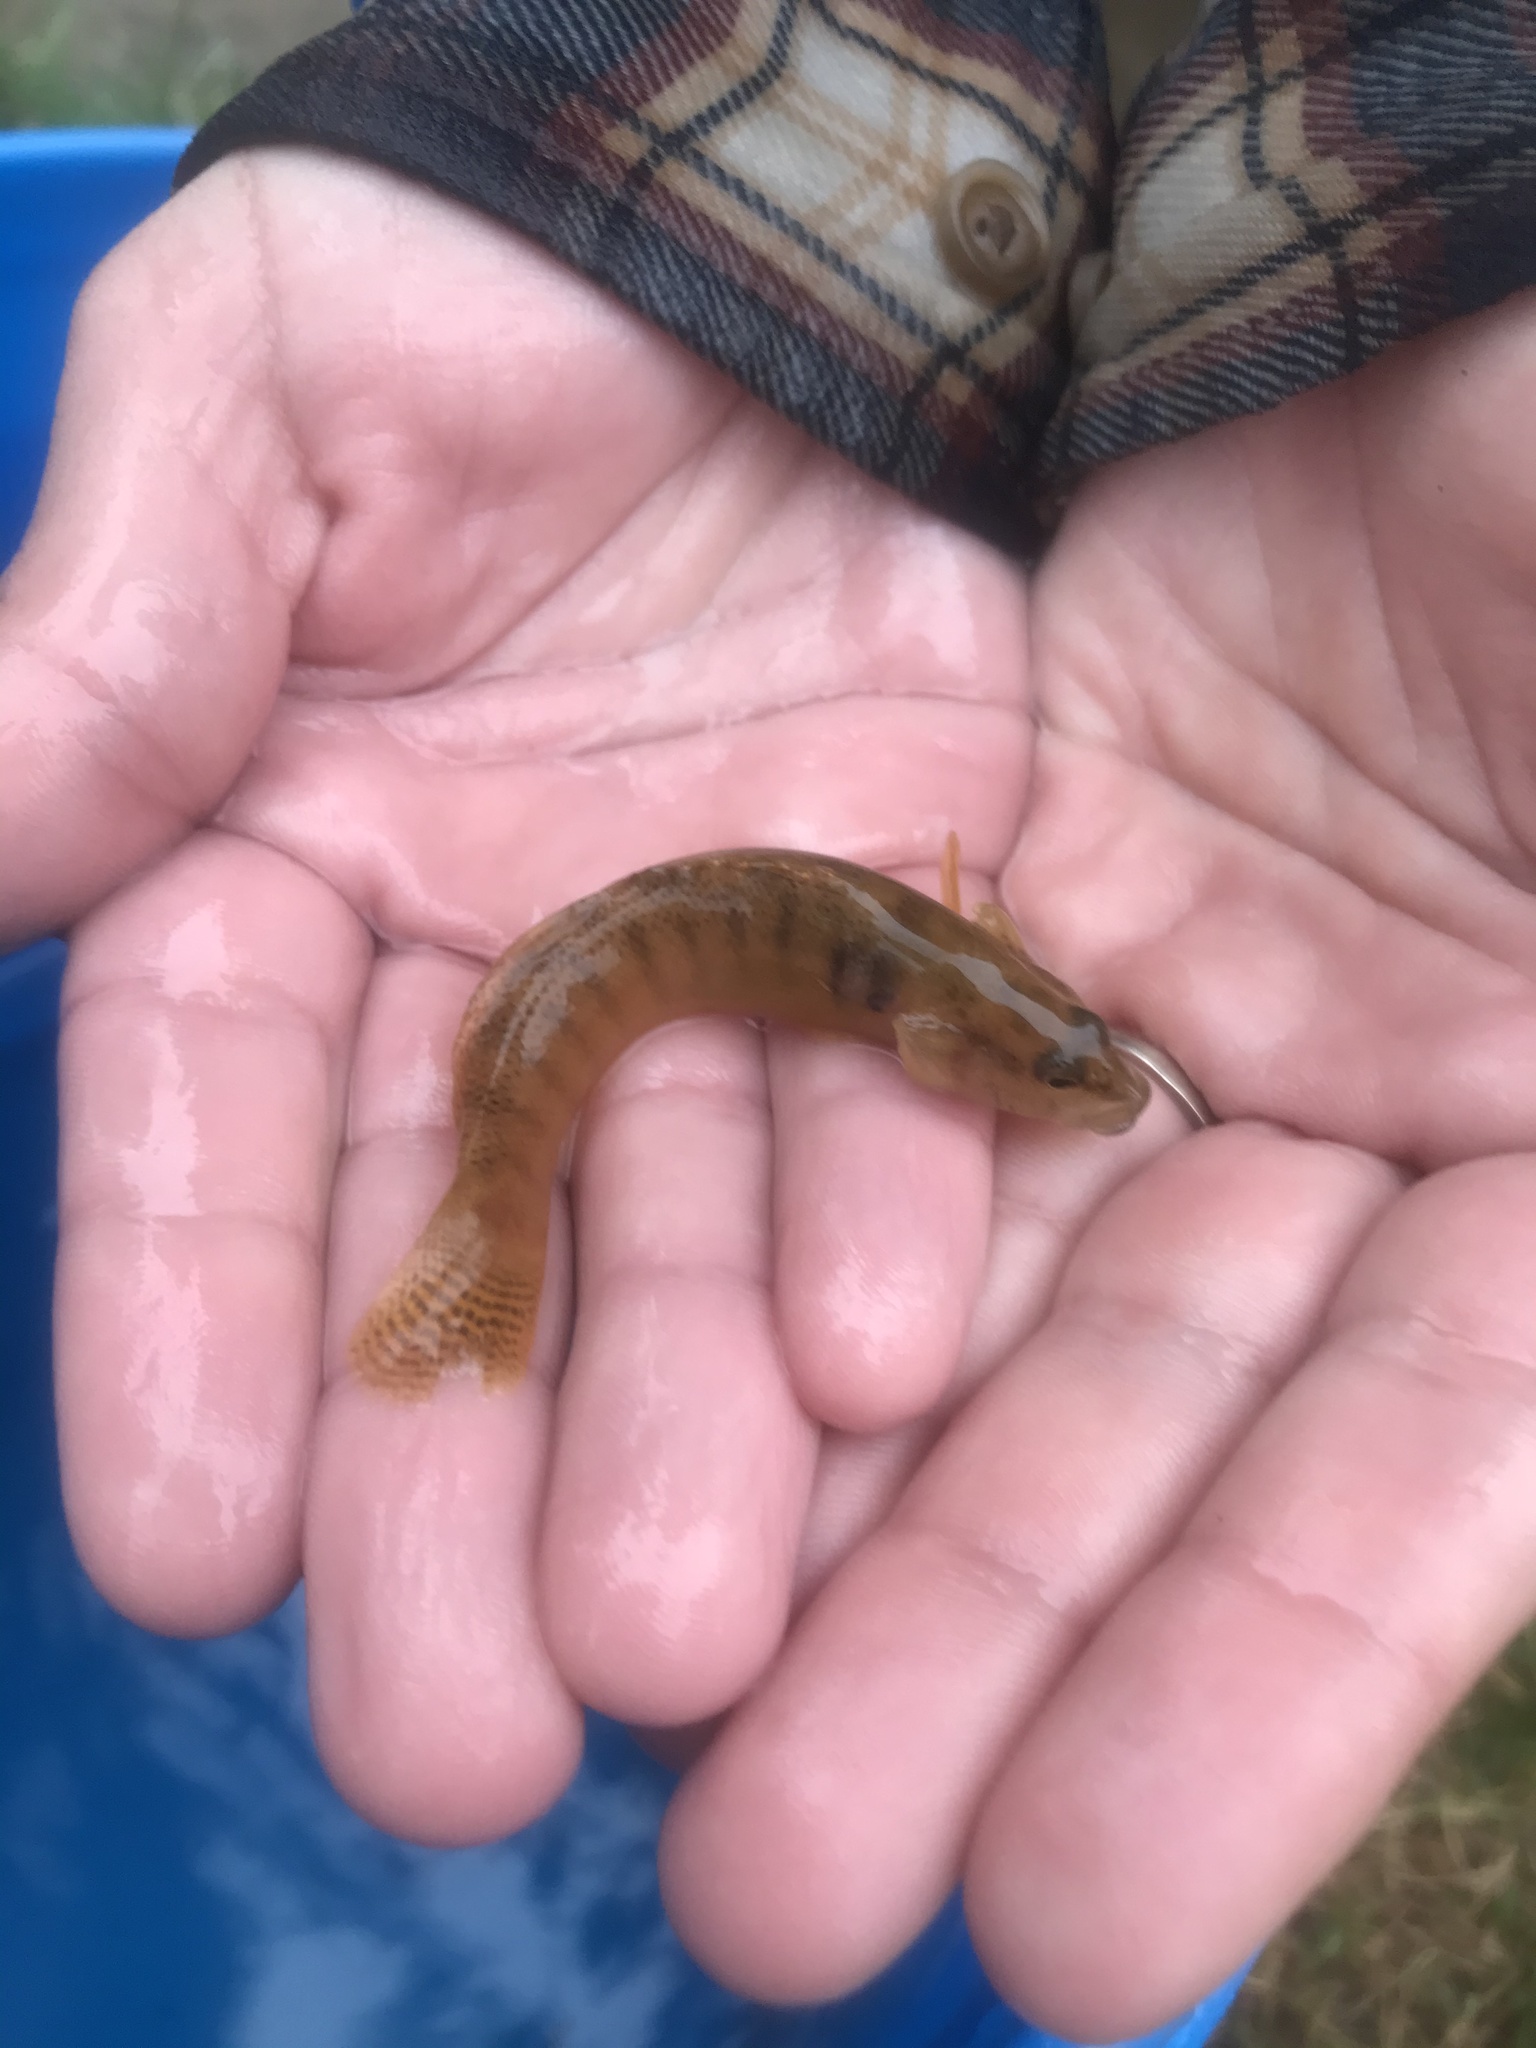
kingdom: Animalia
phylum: Chordata
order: Perciformes
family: Percidae
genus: Etheostoma
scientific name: Etheostoma flabellare
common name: Fantail darter
